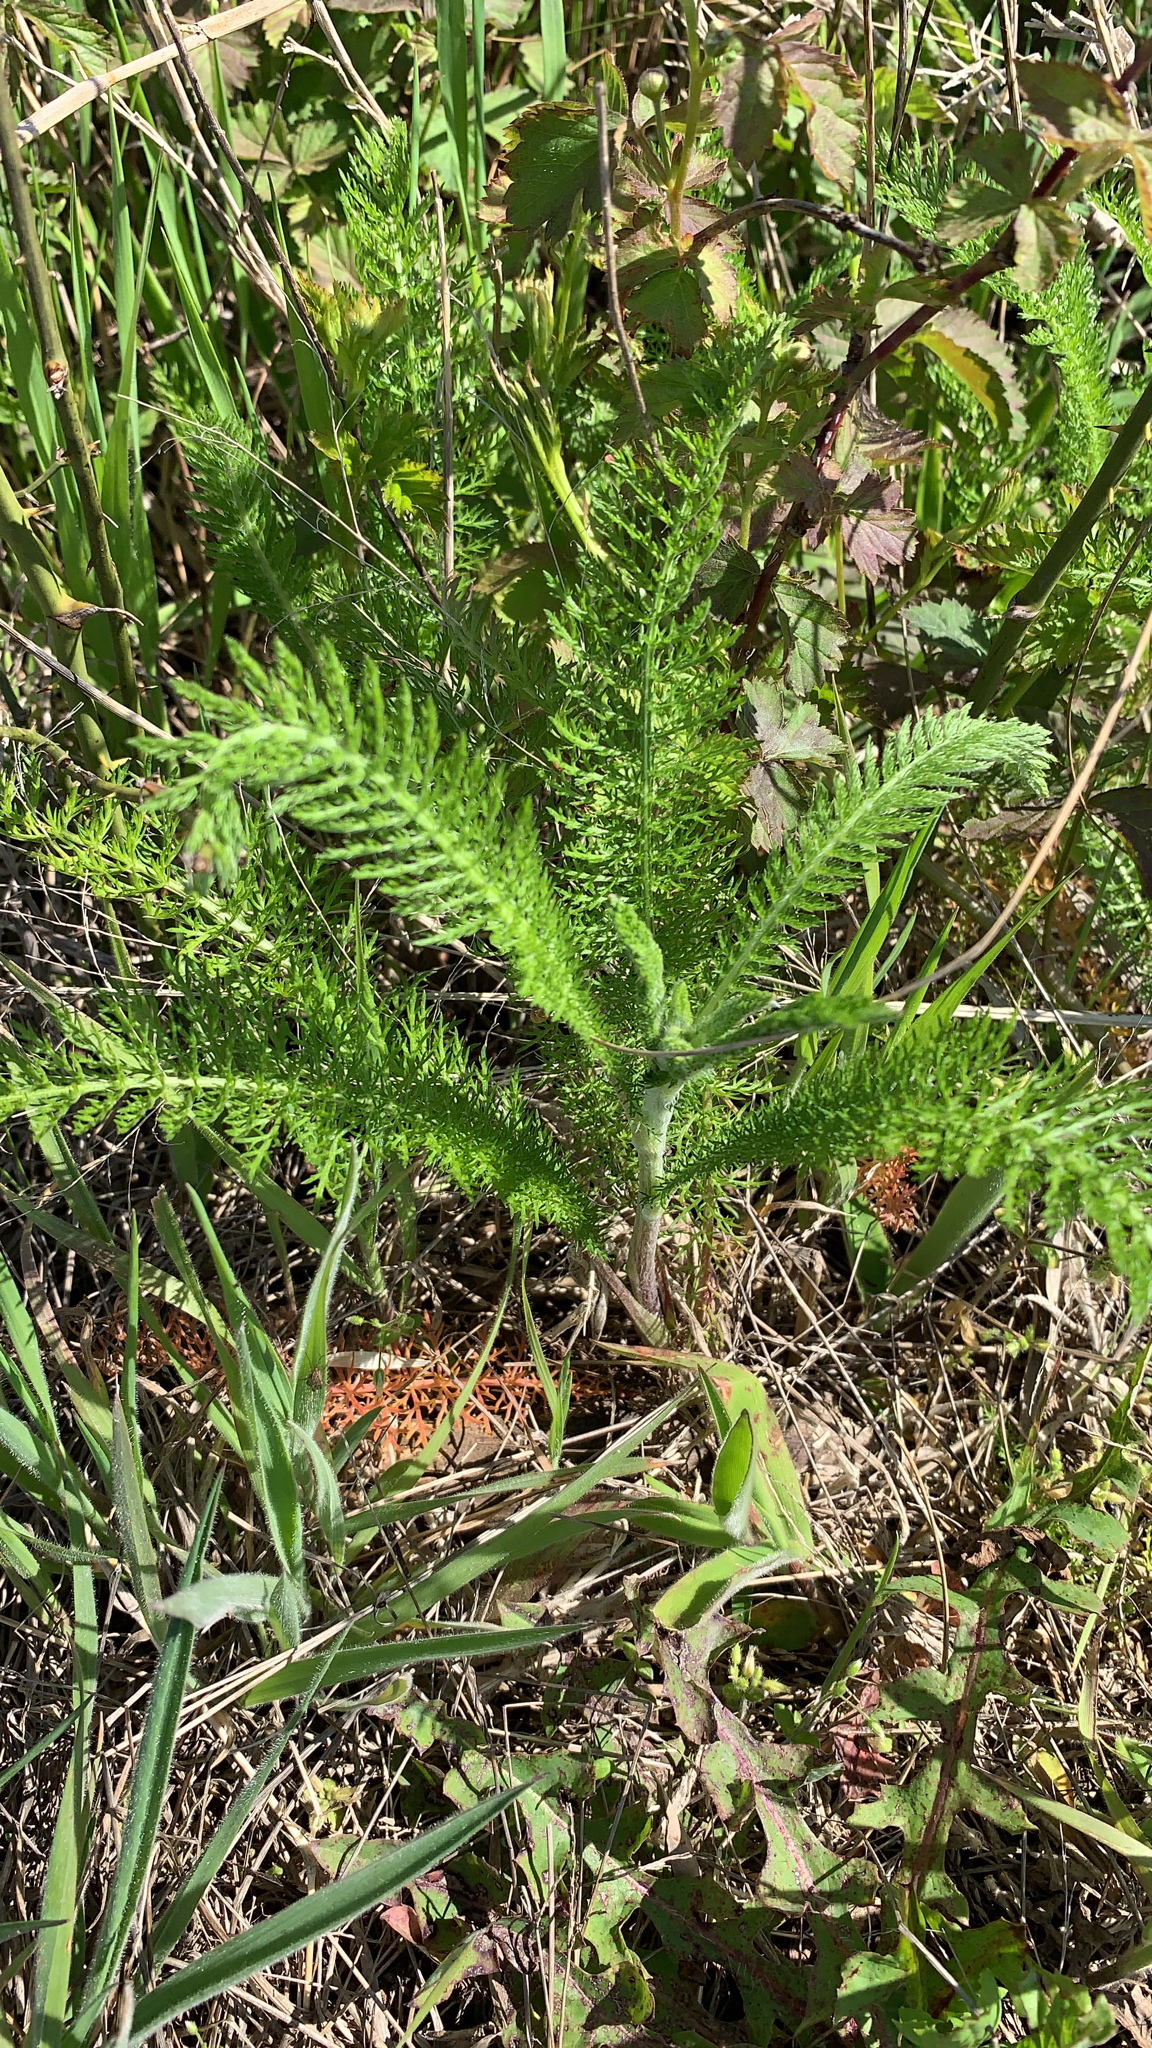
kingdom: Plantae
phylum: Tracheophyta
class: Magnoliopsida
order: Asterales
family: Asteraceae
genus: Achillea
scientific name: Achillea millefolium
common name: Yarrow
